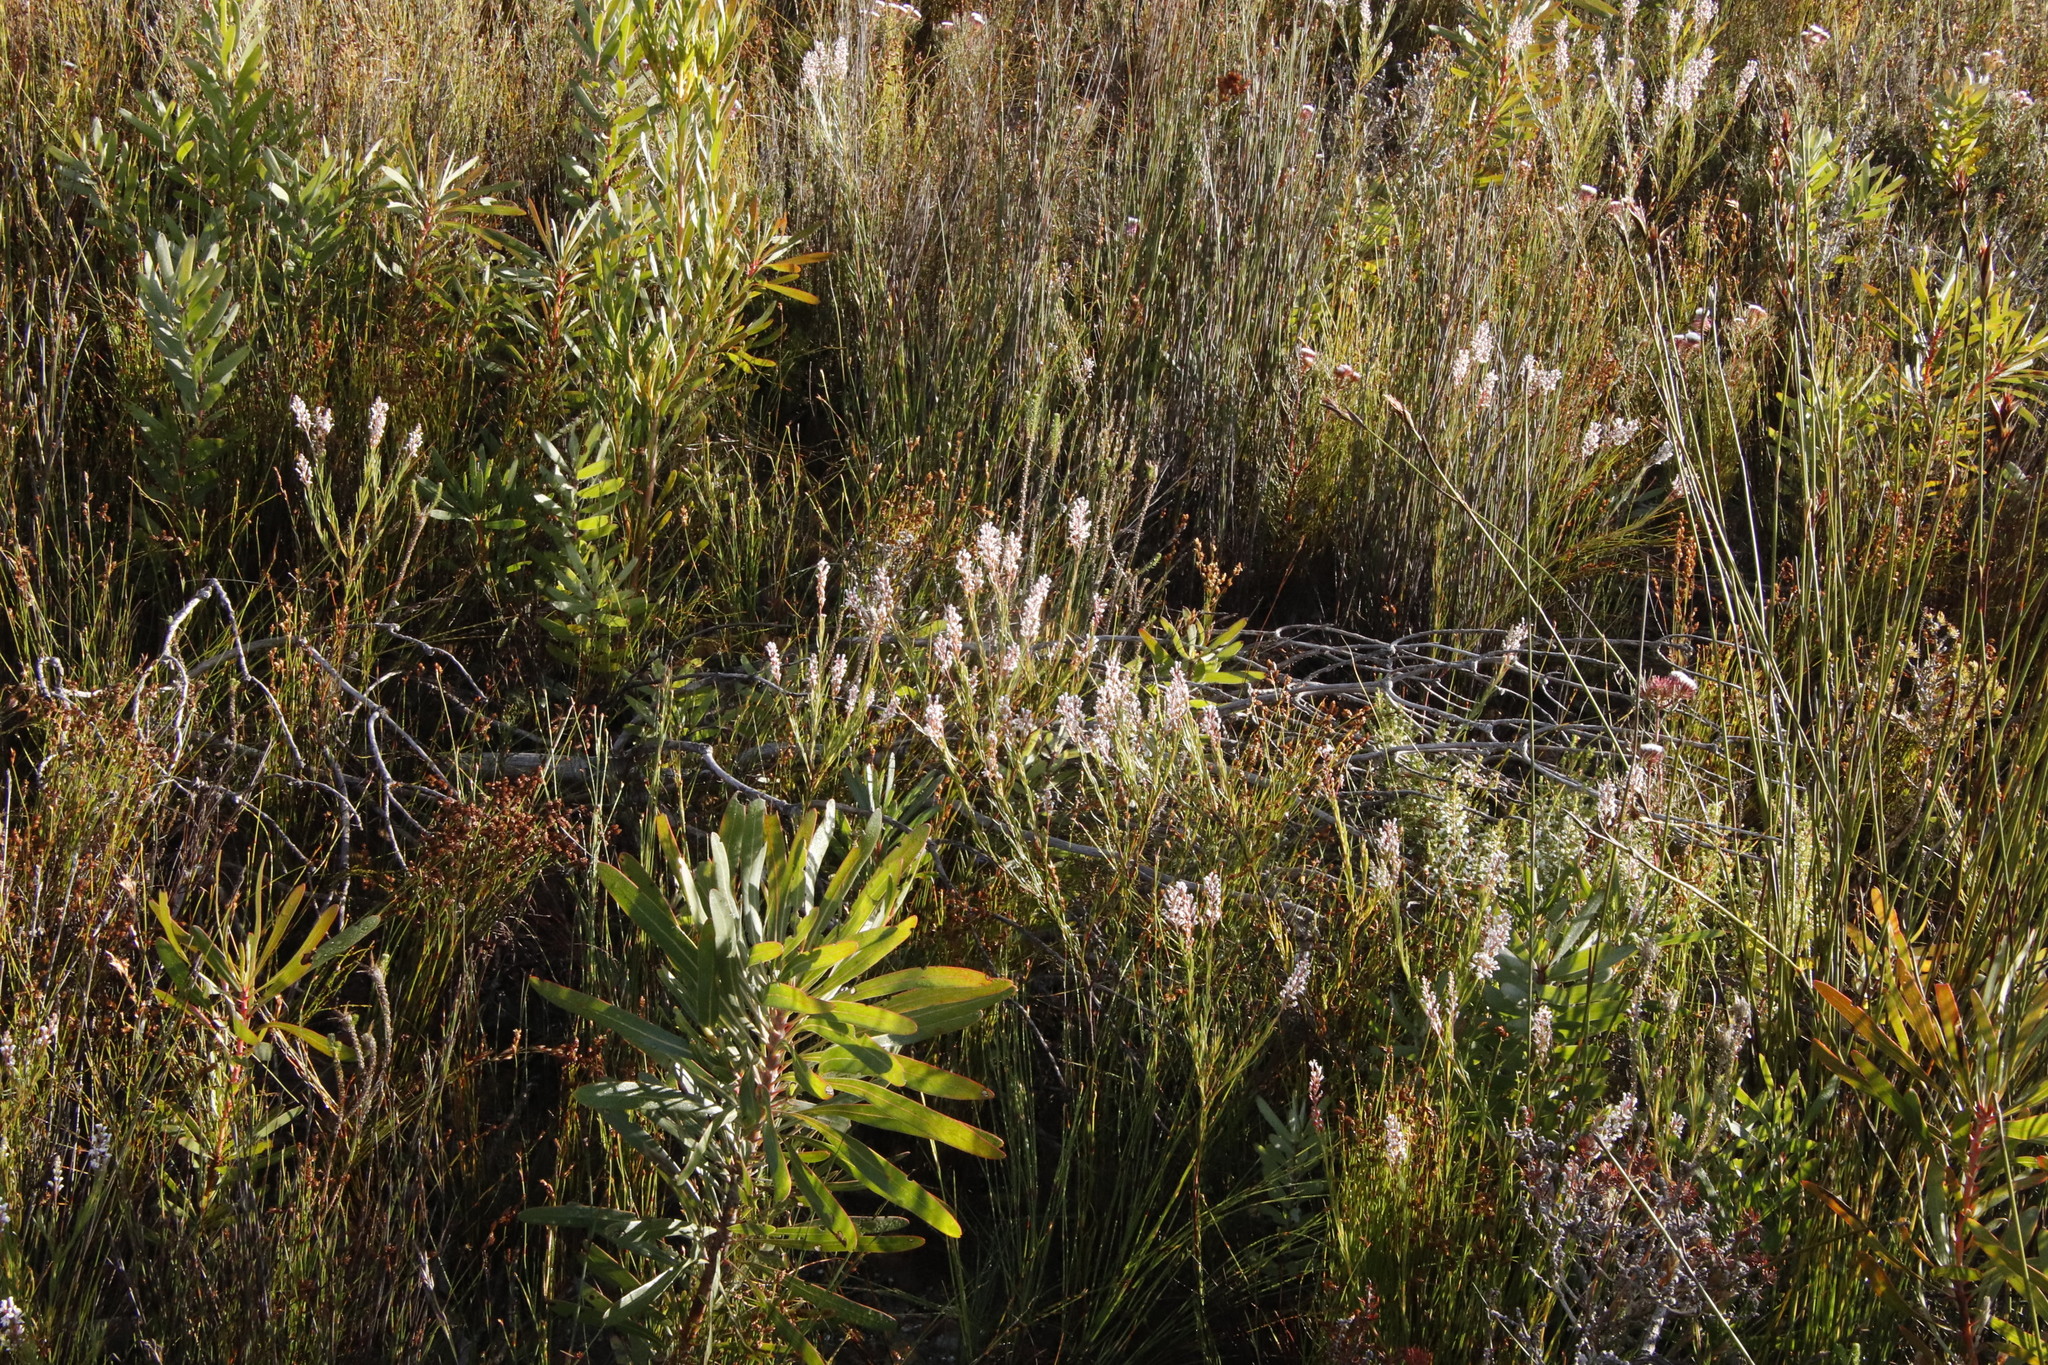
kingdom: Plantae
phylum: Tracheophyta
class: Magnoliopsida
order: Proteales
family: Proteaceae
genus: Spatalla
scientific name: Spatalla racemosa
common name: Lax-stalked spoon
